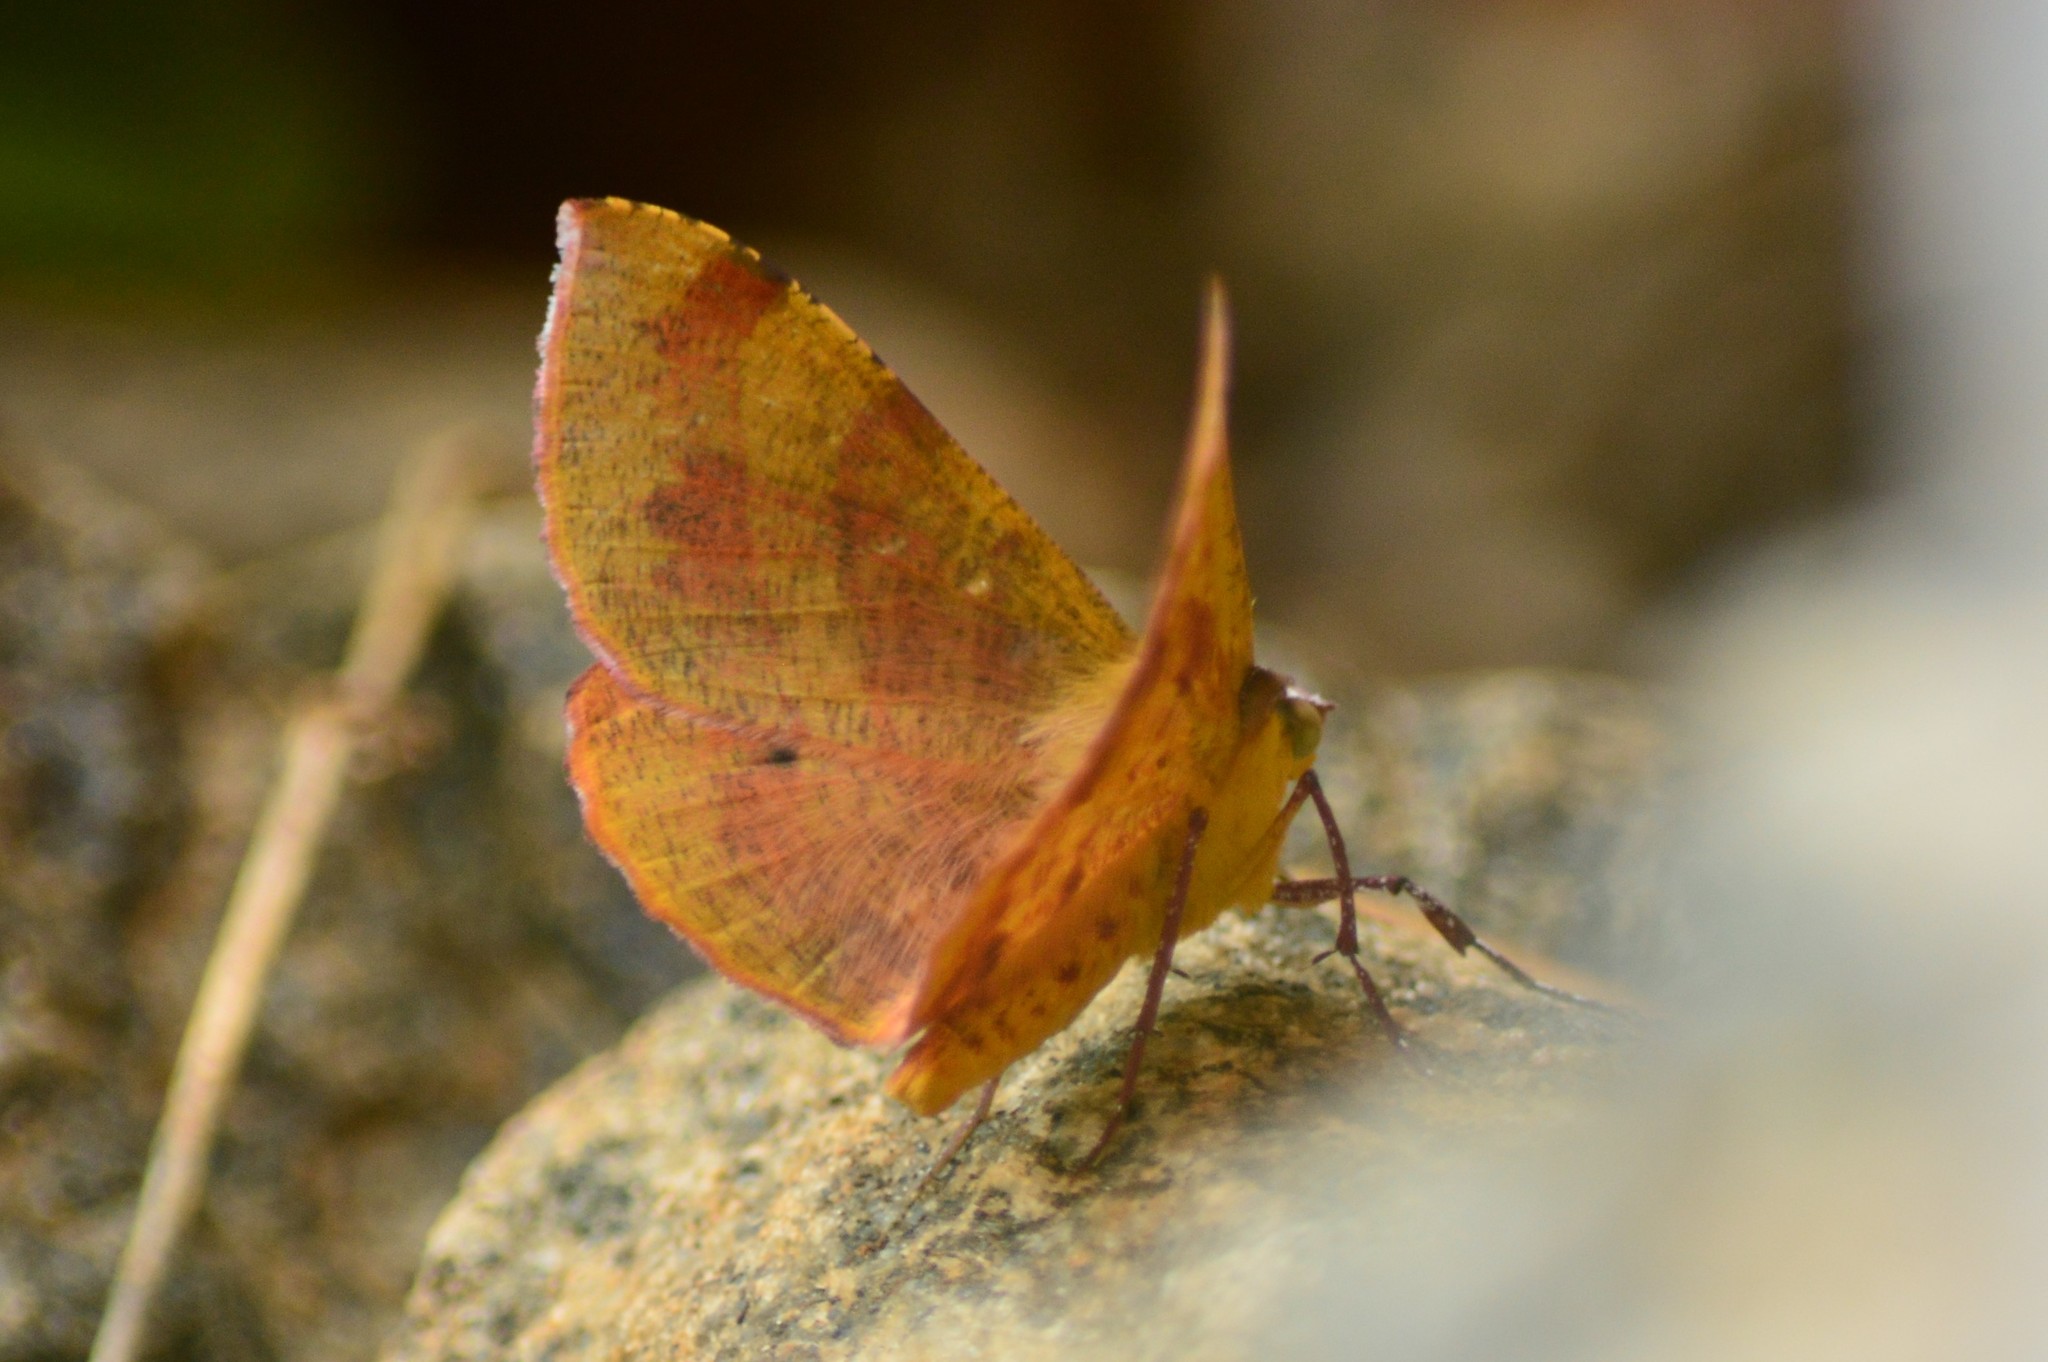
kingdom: Animalia
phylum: Arthropoda
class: Insecta
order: Lepidoptera
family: Geometridae
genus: Hyperythra
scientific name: Hyperythra lutea
